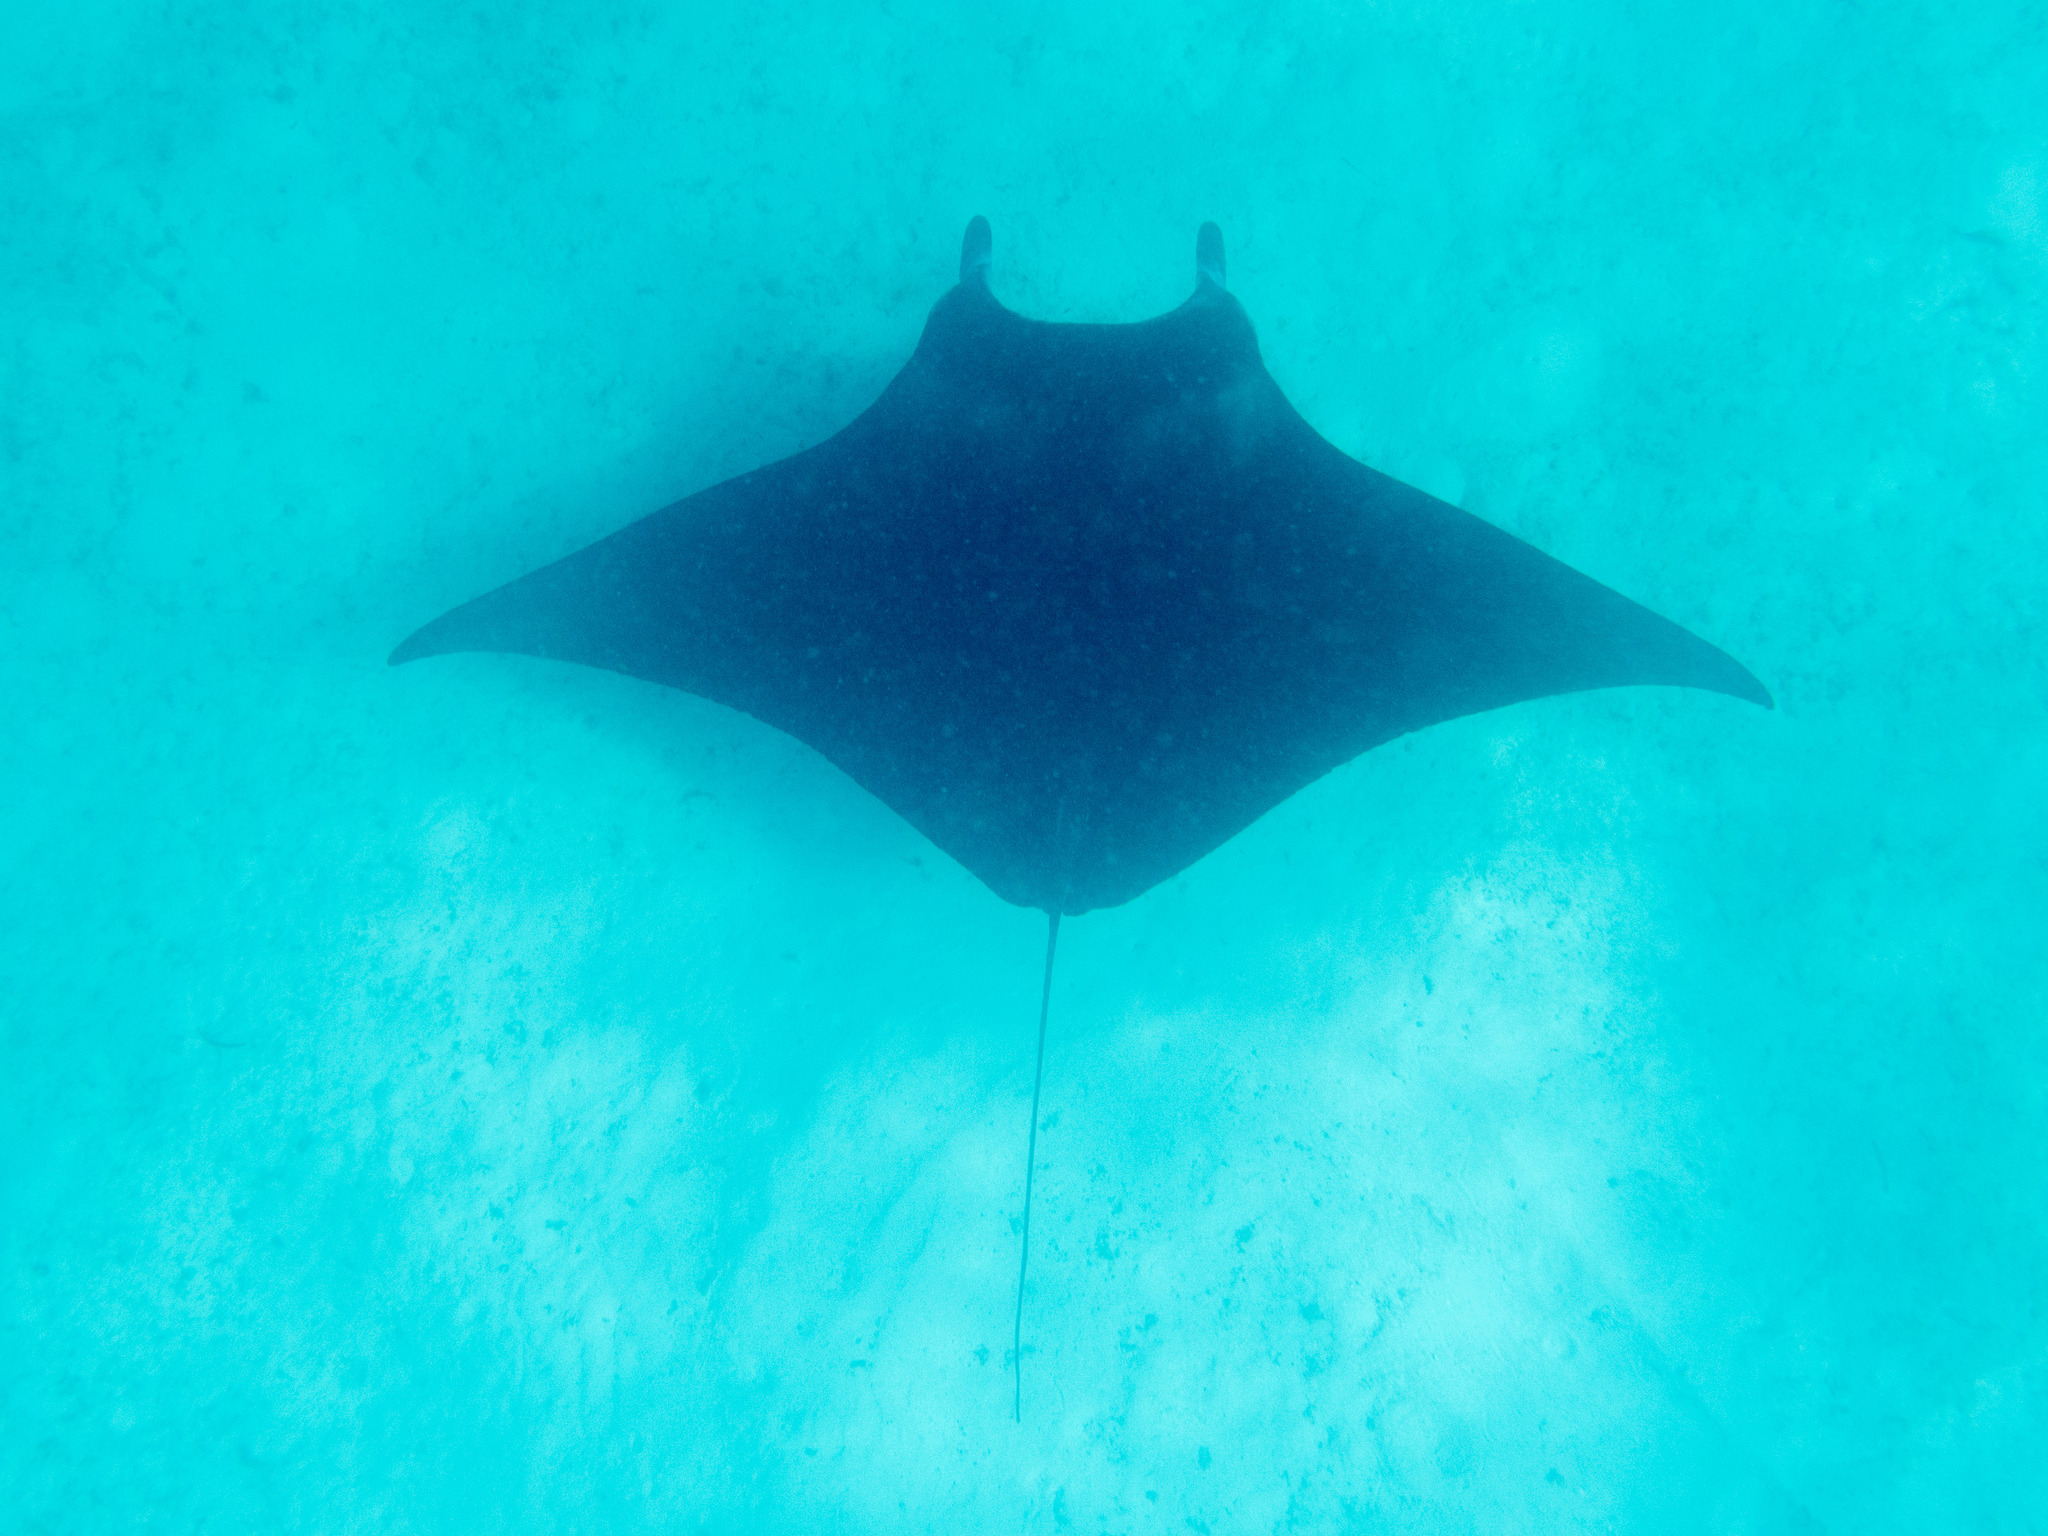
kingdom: Animalia
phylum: Chordata
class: Elasmobranchii
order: Myliobatiformes
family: Myliobatidae
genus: Mobula
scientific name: Mobula alfredi
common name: Reef manta ray
